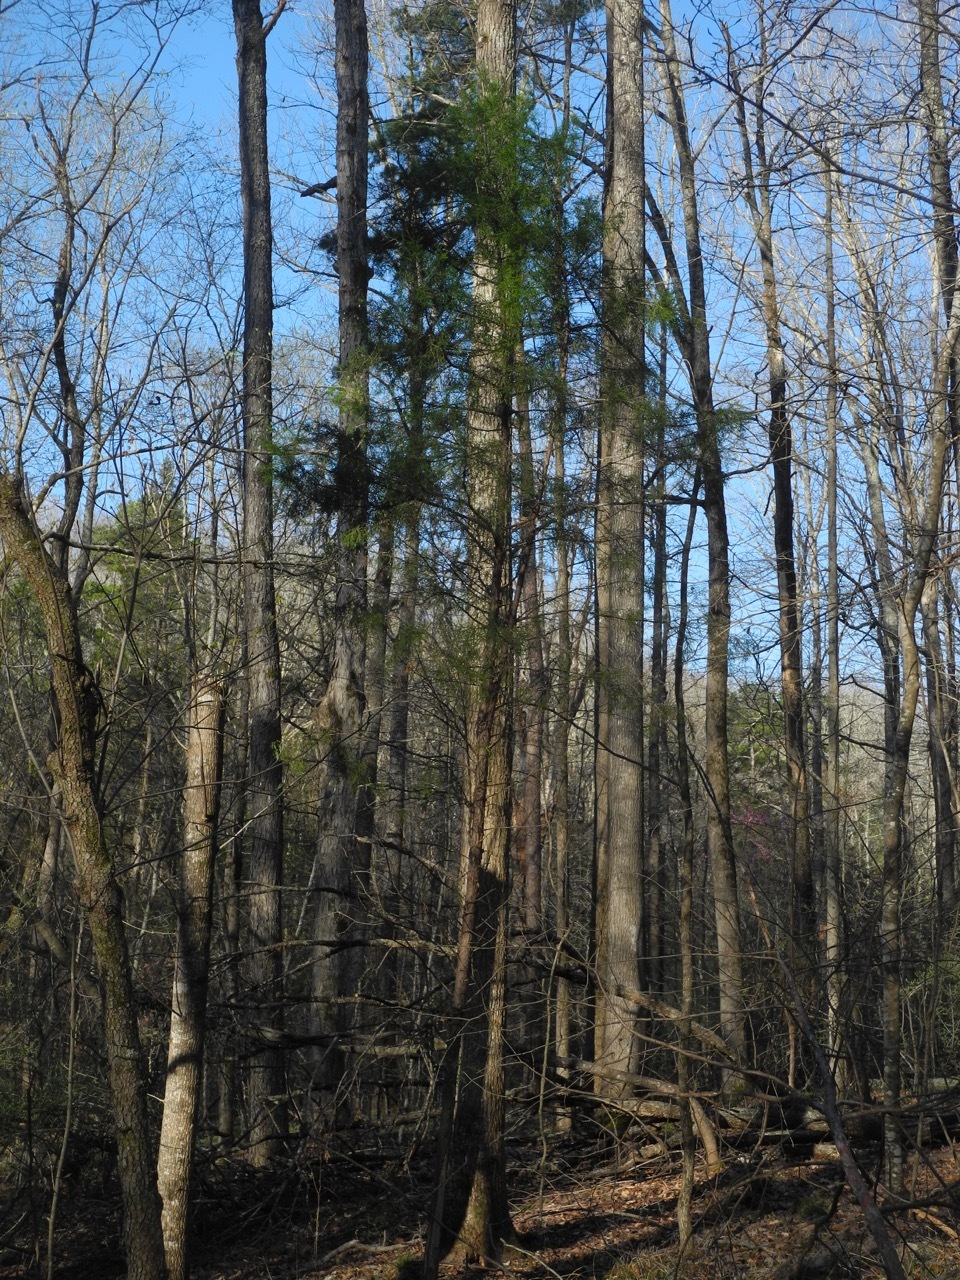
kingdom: Plantae
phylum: Tracheophyta
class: Pinopsida
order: Pinales
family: Cupressaceae
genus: Juniperus
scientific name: Juniperus virginiana
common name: Red juniper
